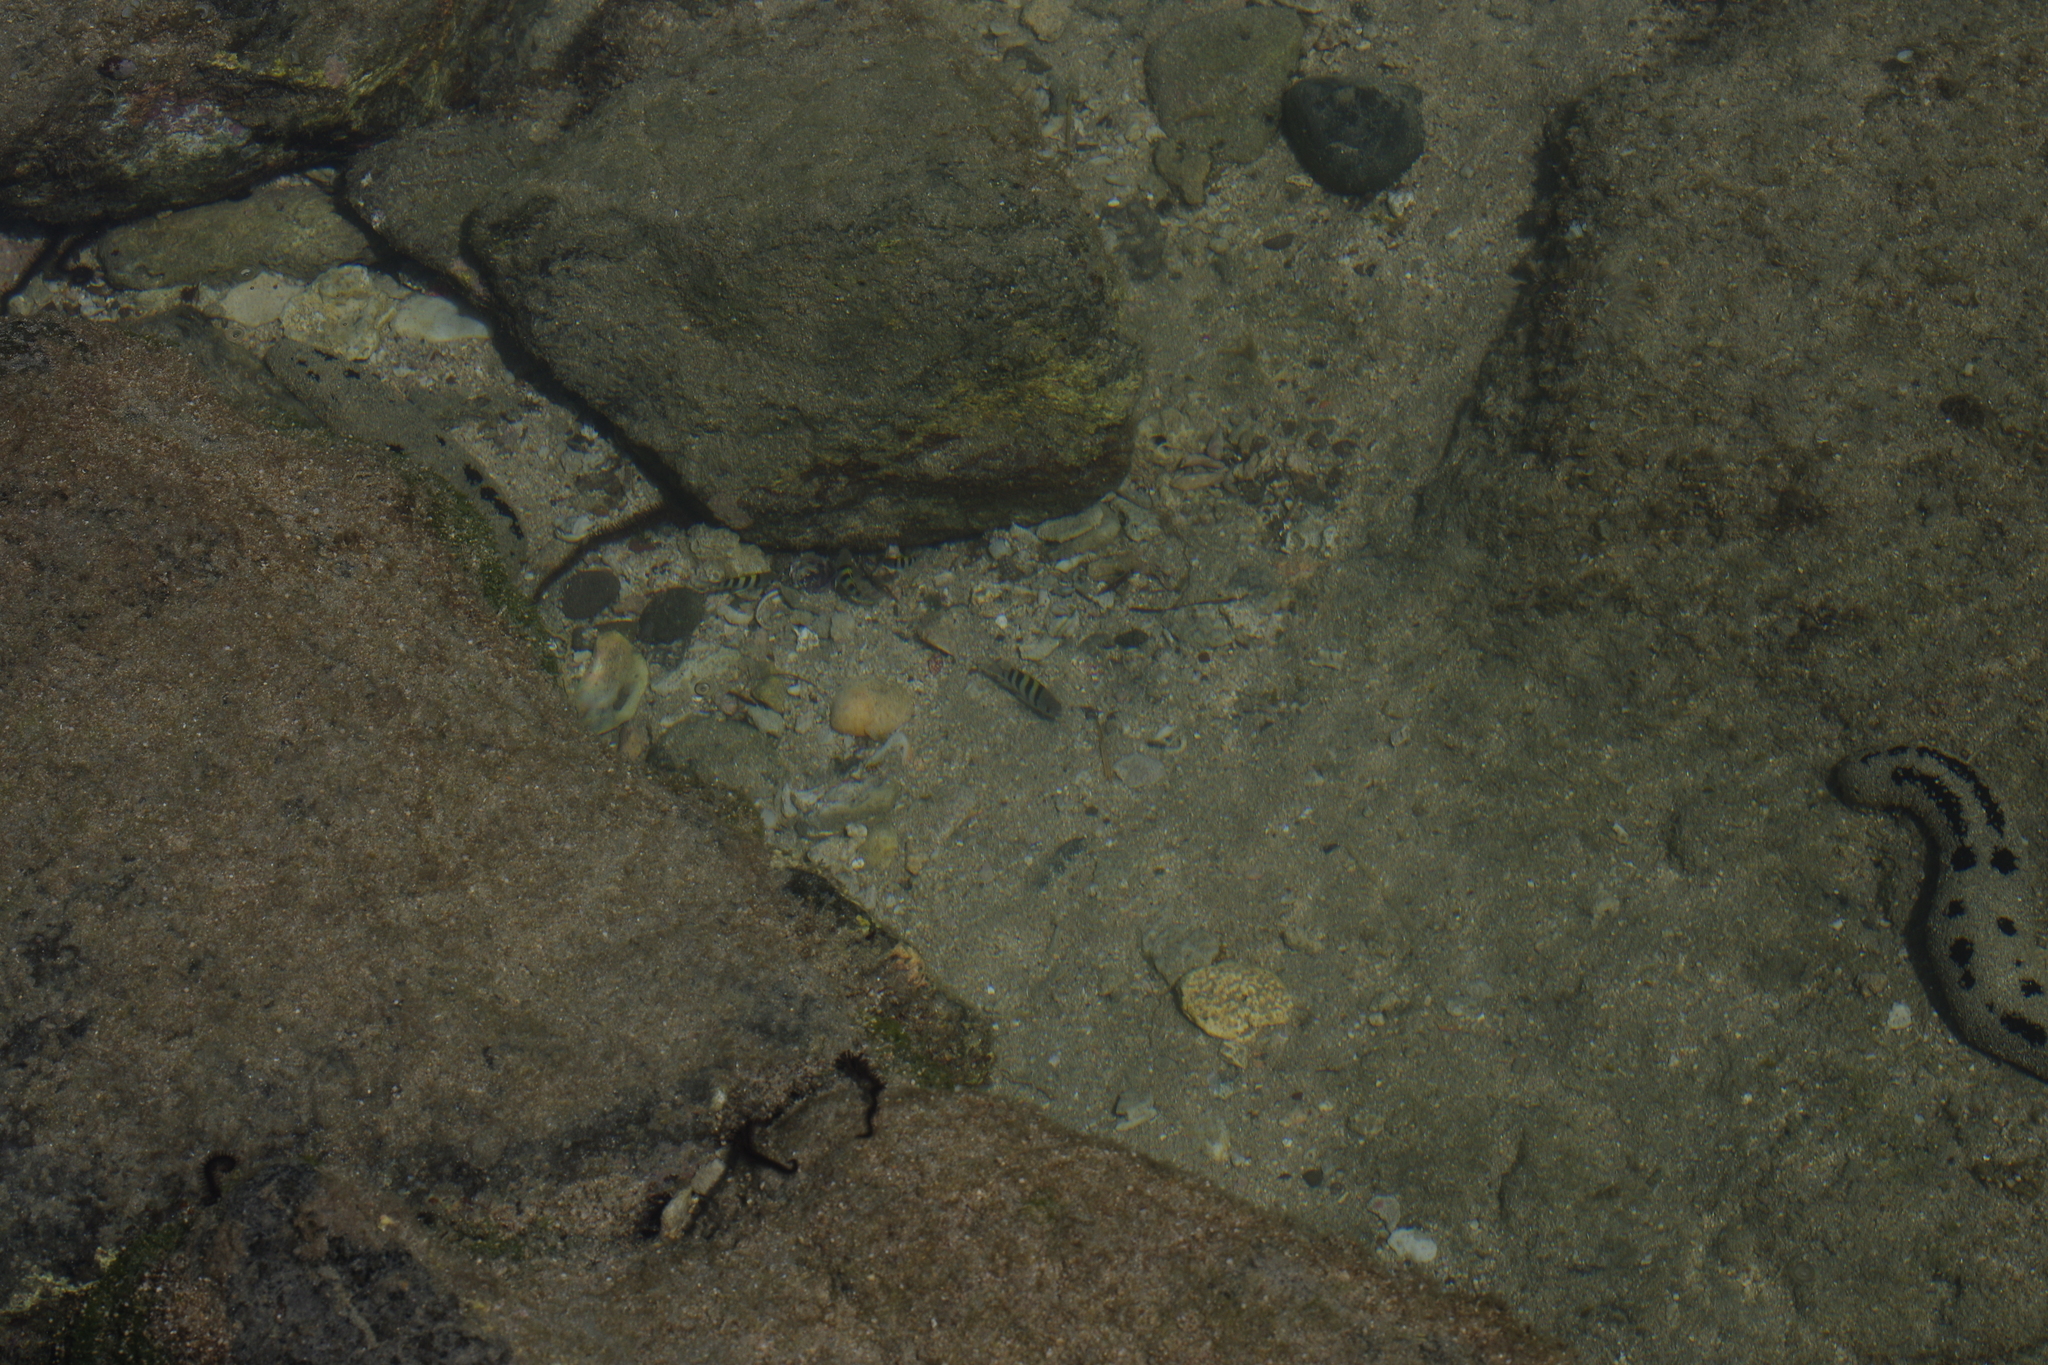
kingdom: Animalia
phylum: Chordata
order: Perciformes
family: Pomacentridae
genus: Abudefduf
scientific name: Abudefduf vaigiensis
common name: Indo-pacific sergeant
